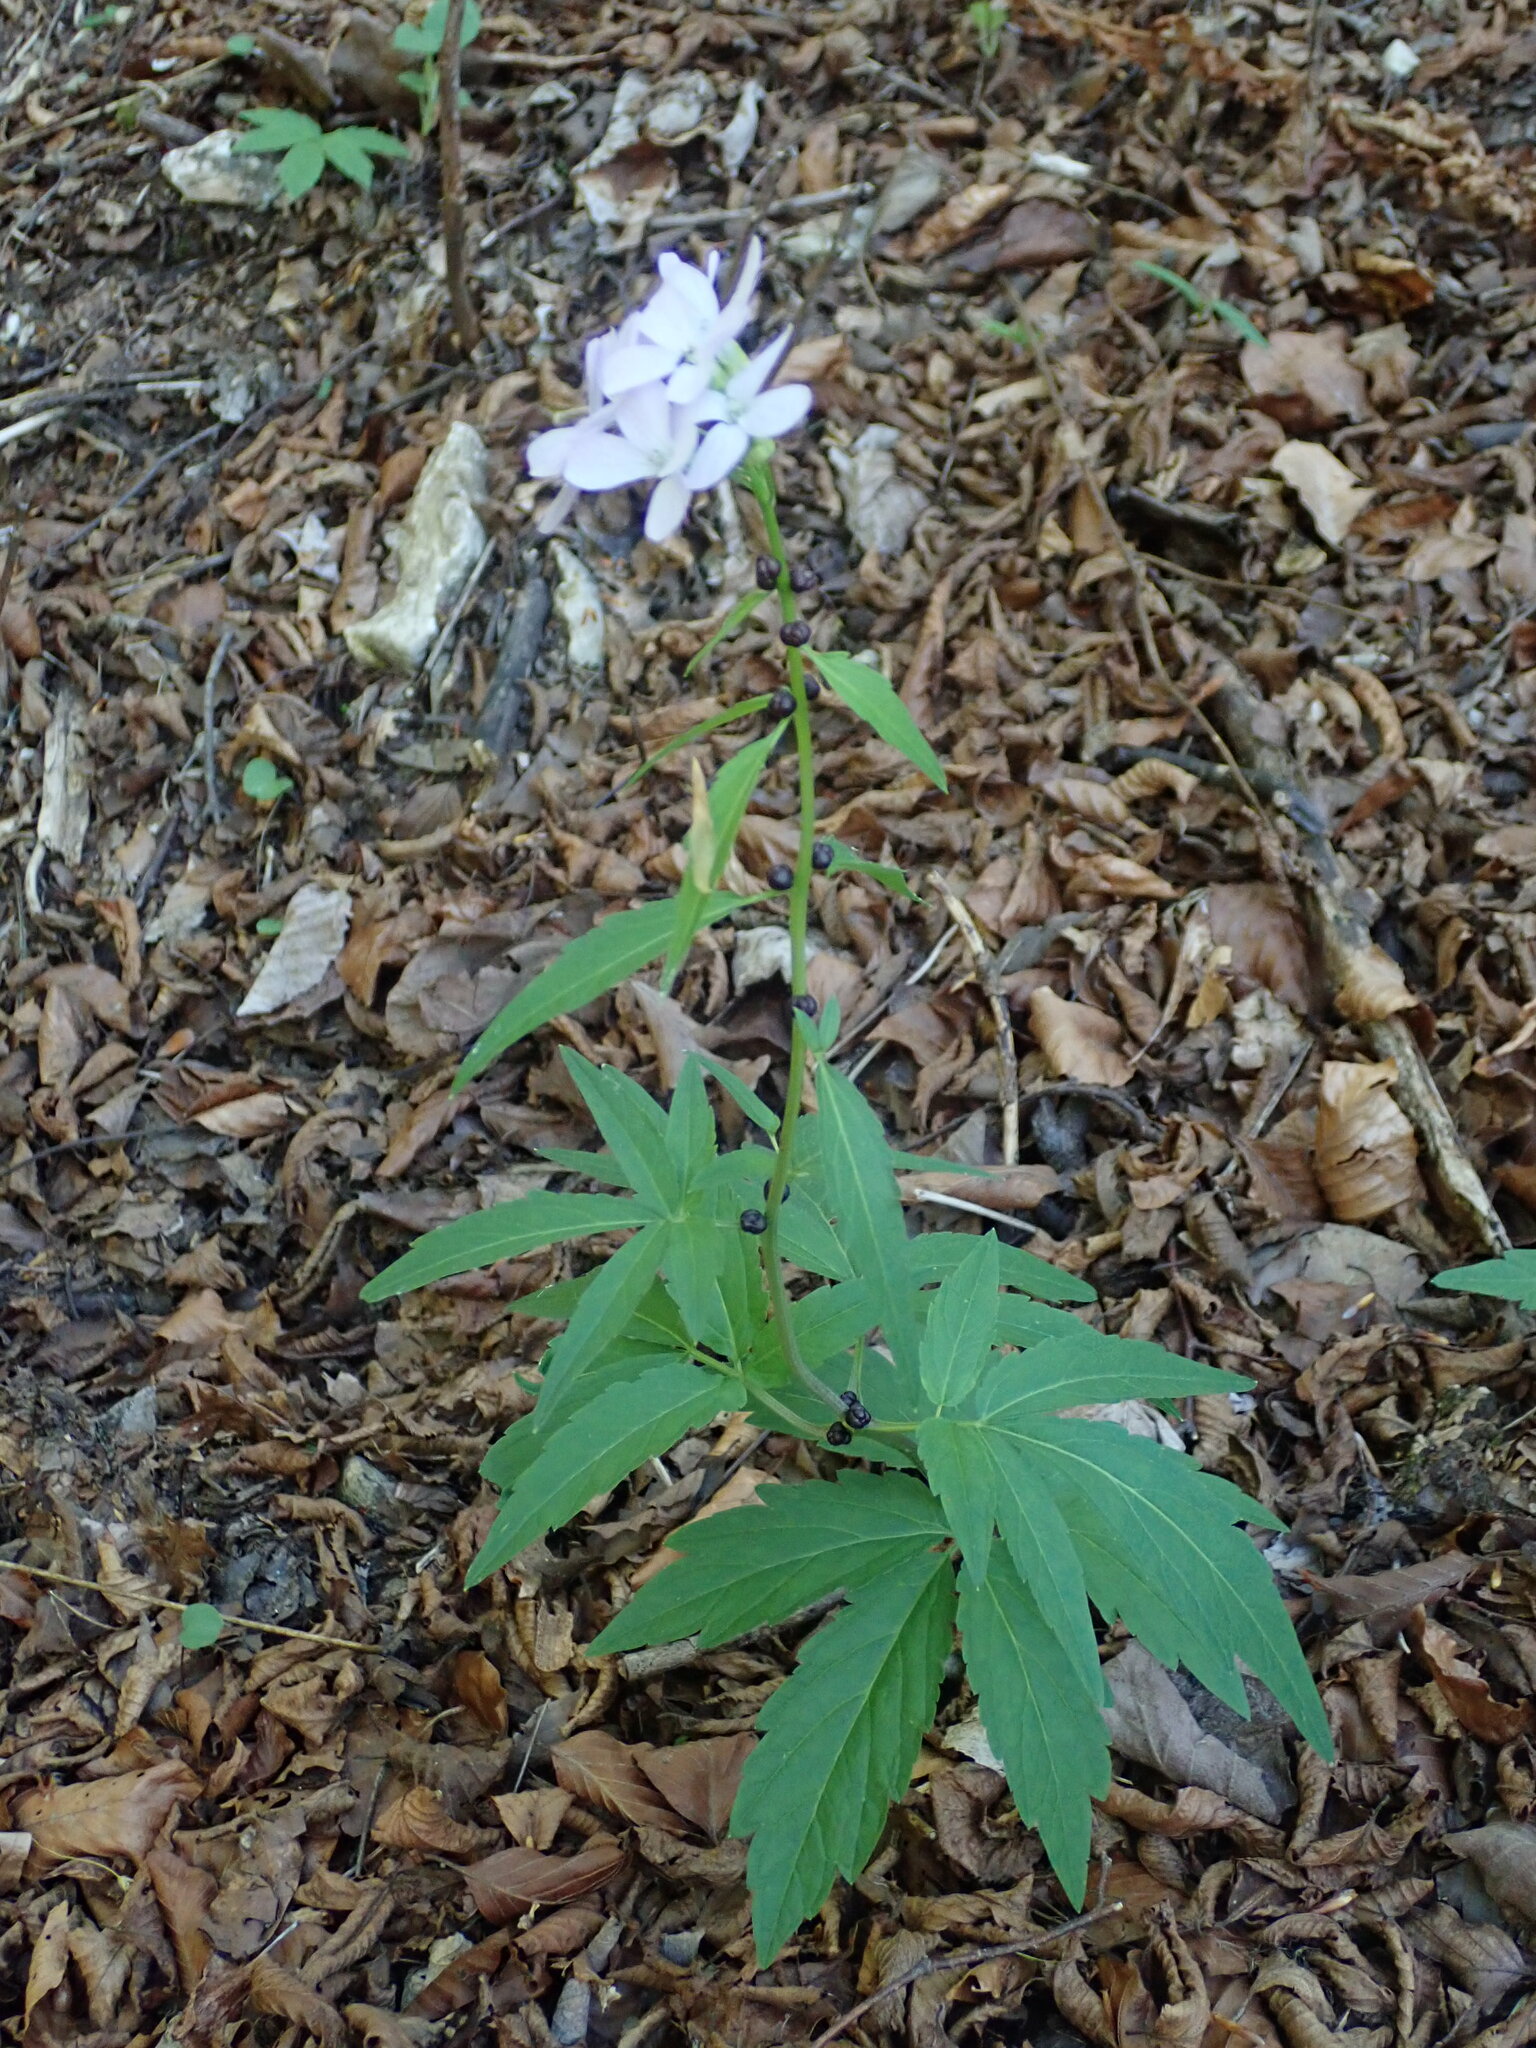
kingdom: Plantae
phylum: Tracheophyta
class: Magnoliopsida
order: Brassicales
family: Brassicaceae
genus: Cardamine
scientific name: Cardamine bulbifera
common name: Coralroot bittercress
